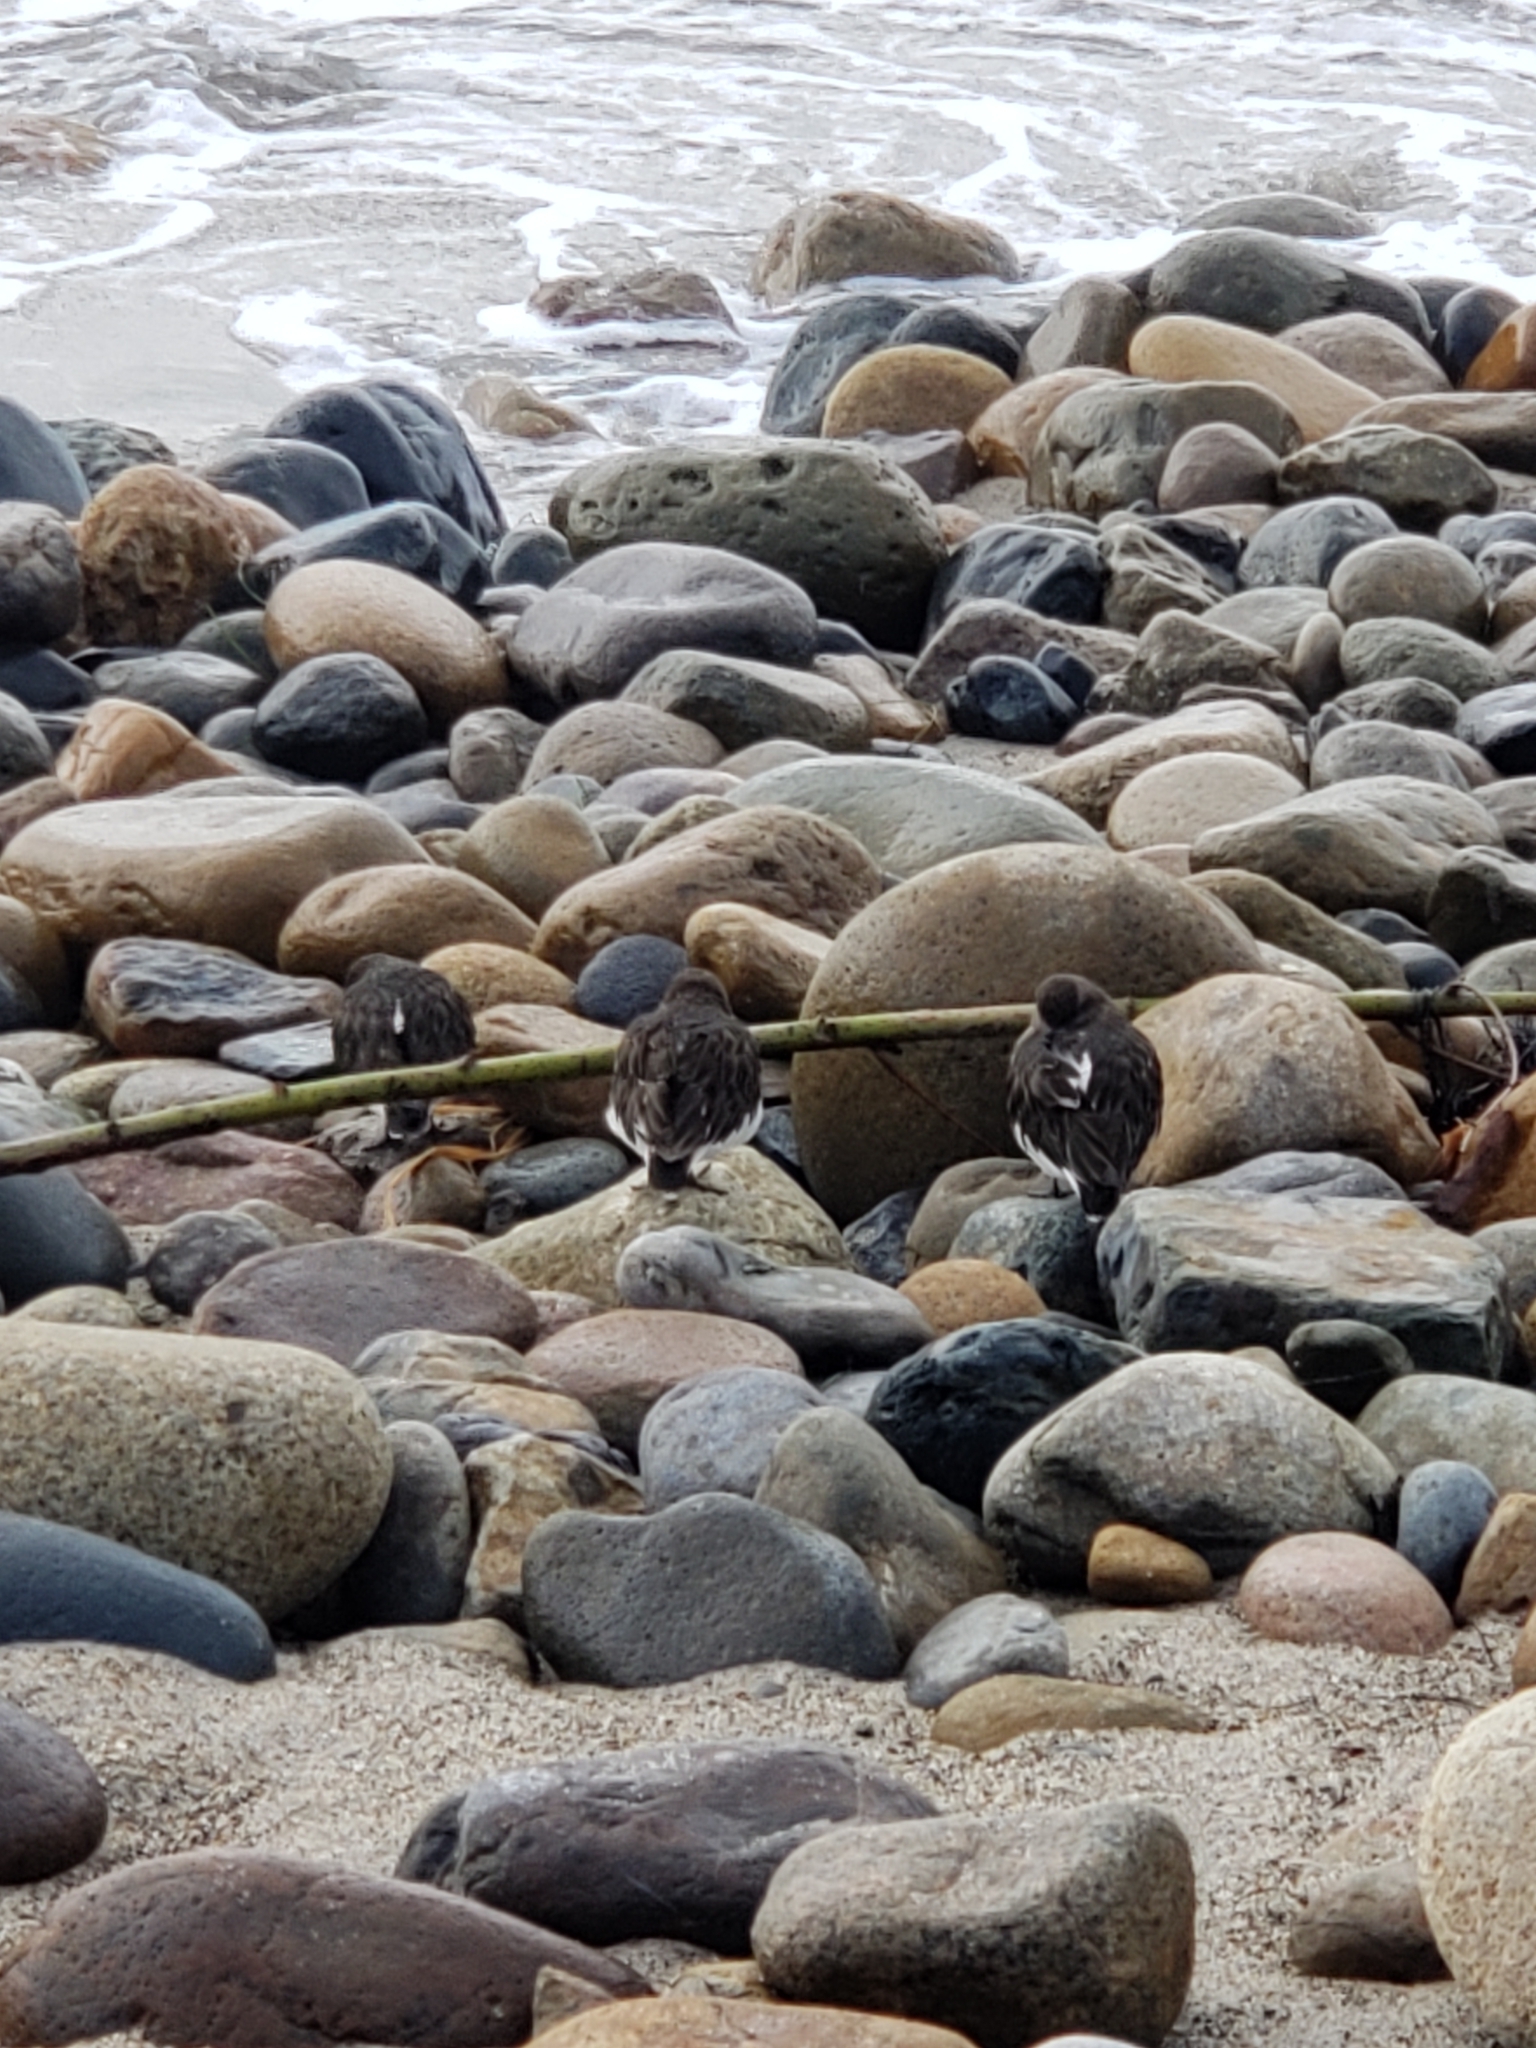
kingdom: Animalia
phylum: Chordata
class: Aves
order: Charadriiformes
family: Scolopacidae
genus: Arenaria
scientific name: Arenaria melanocephala
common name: Black turnstone
